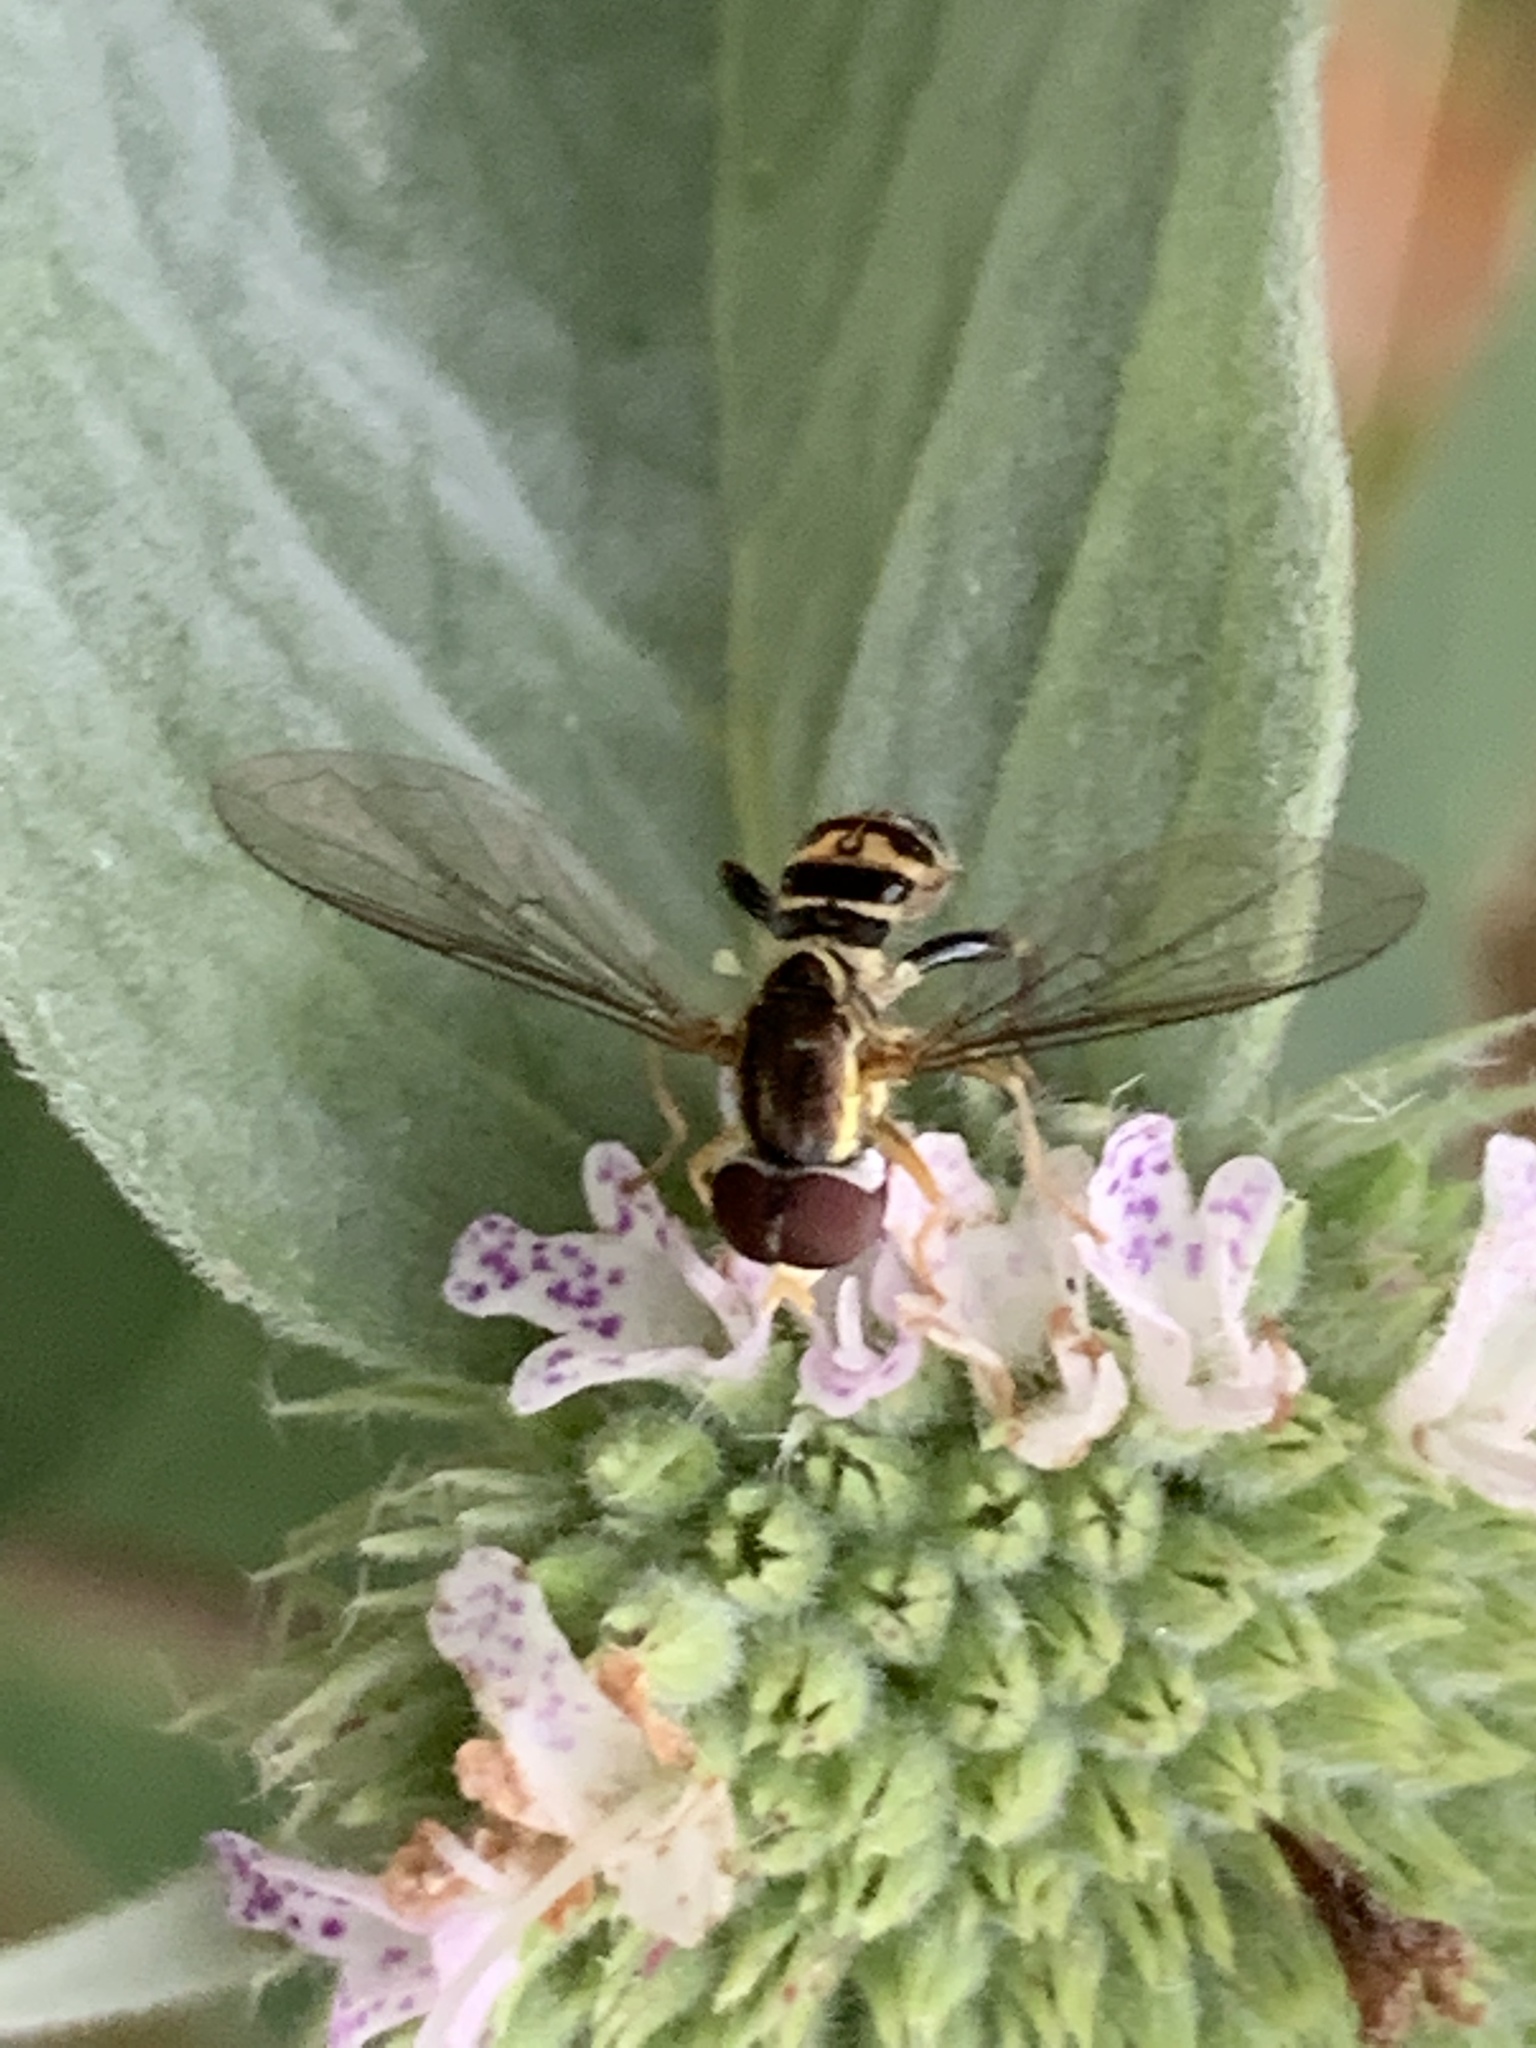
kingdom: Animalia
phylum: Arthropoda
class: Insecta
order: Diptera
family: Syrphidae
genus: Toxomerus
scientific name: Toxomerus geminatus
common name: Eastern calligrapher
